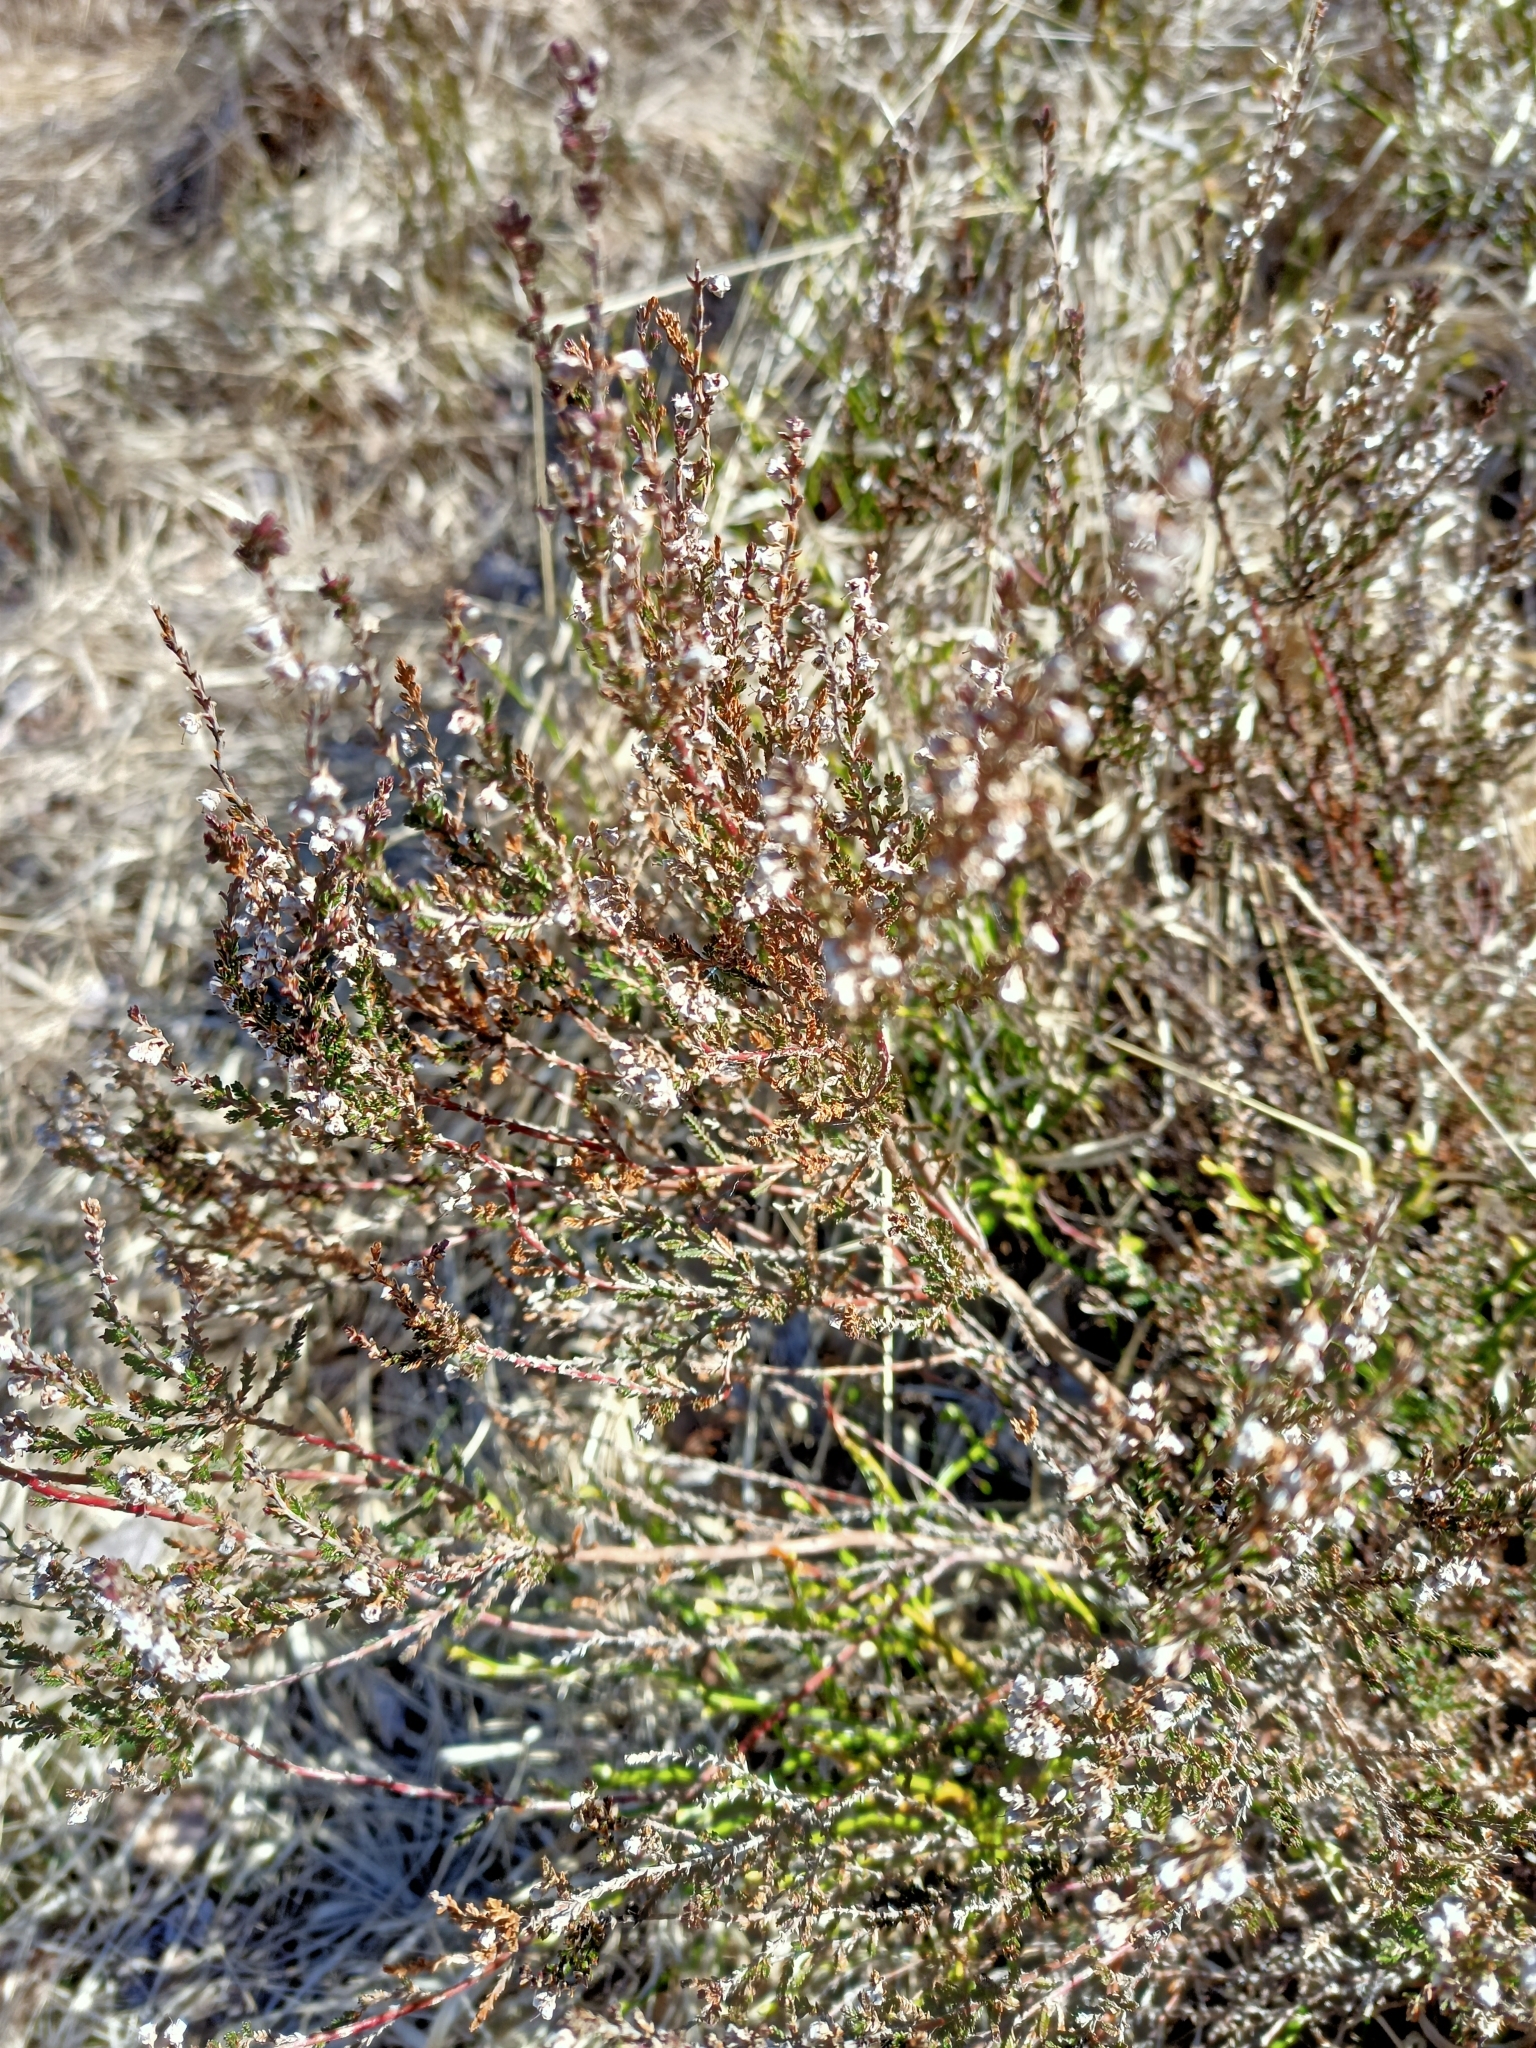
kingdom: Plantae
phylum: Tracheophyta
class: Magnoliopsida
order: Ericales
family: Ericaceae
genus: Calluna
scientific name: Calluna vulgaris
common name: Heather
